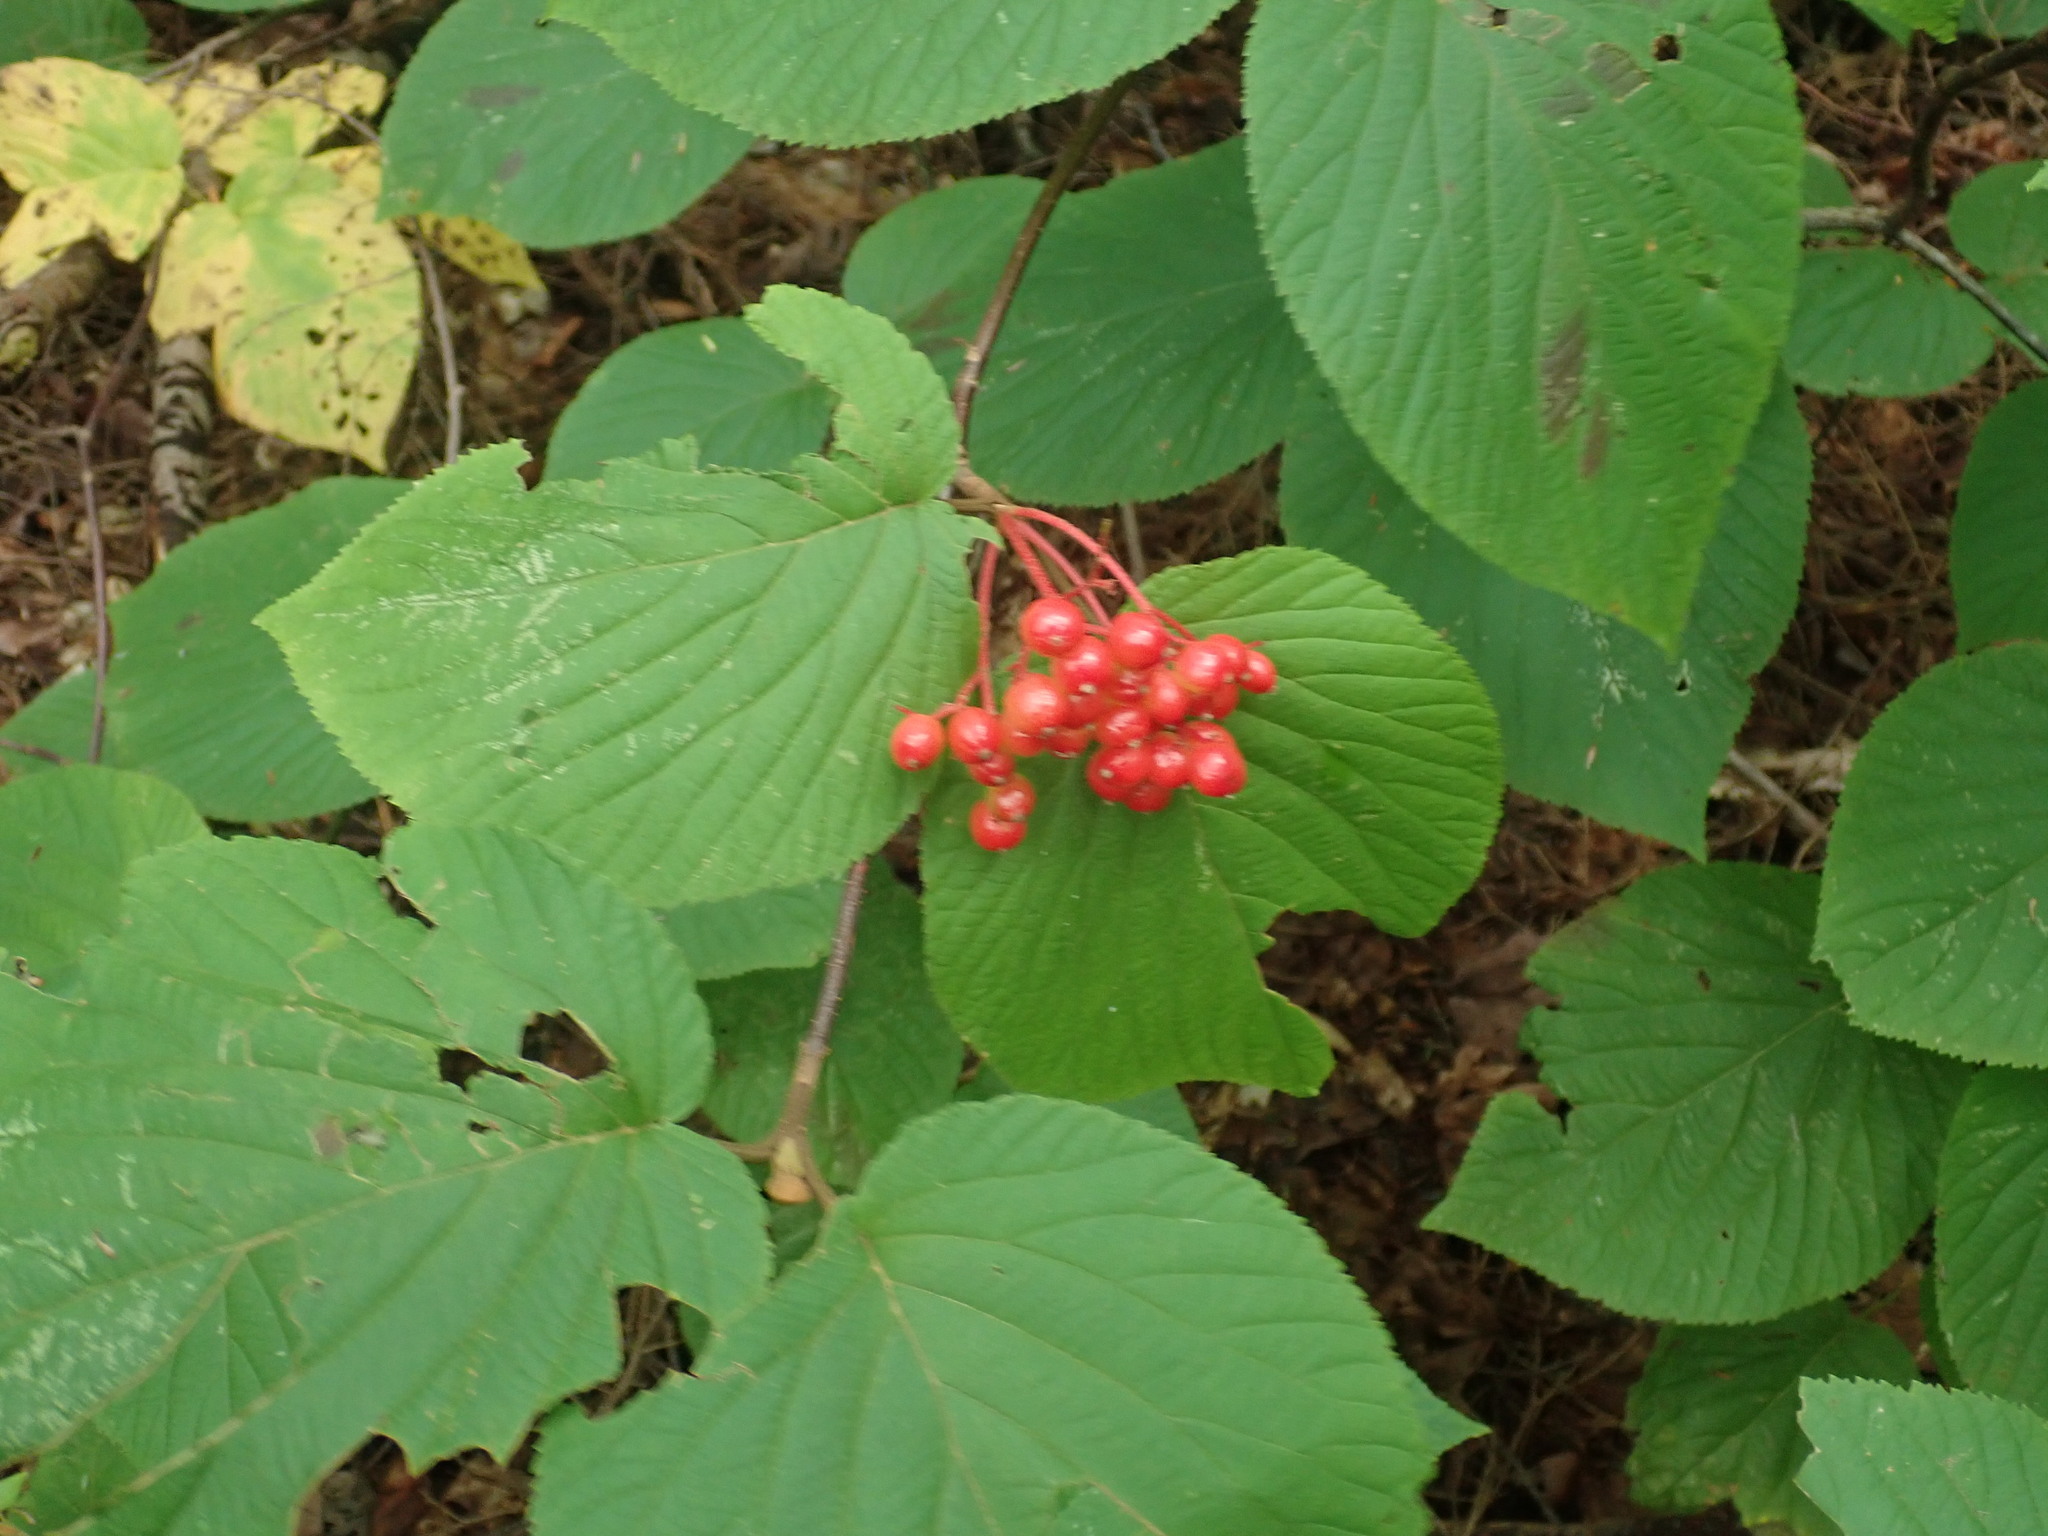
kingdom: Plantae
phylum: Tracheophyta
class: Magnoliopsida
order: Dipsacales
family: Viburnaceae
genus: Viburnum
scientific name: Viburnum lantanoides
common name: Hobblebush
